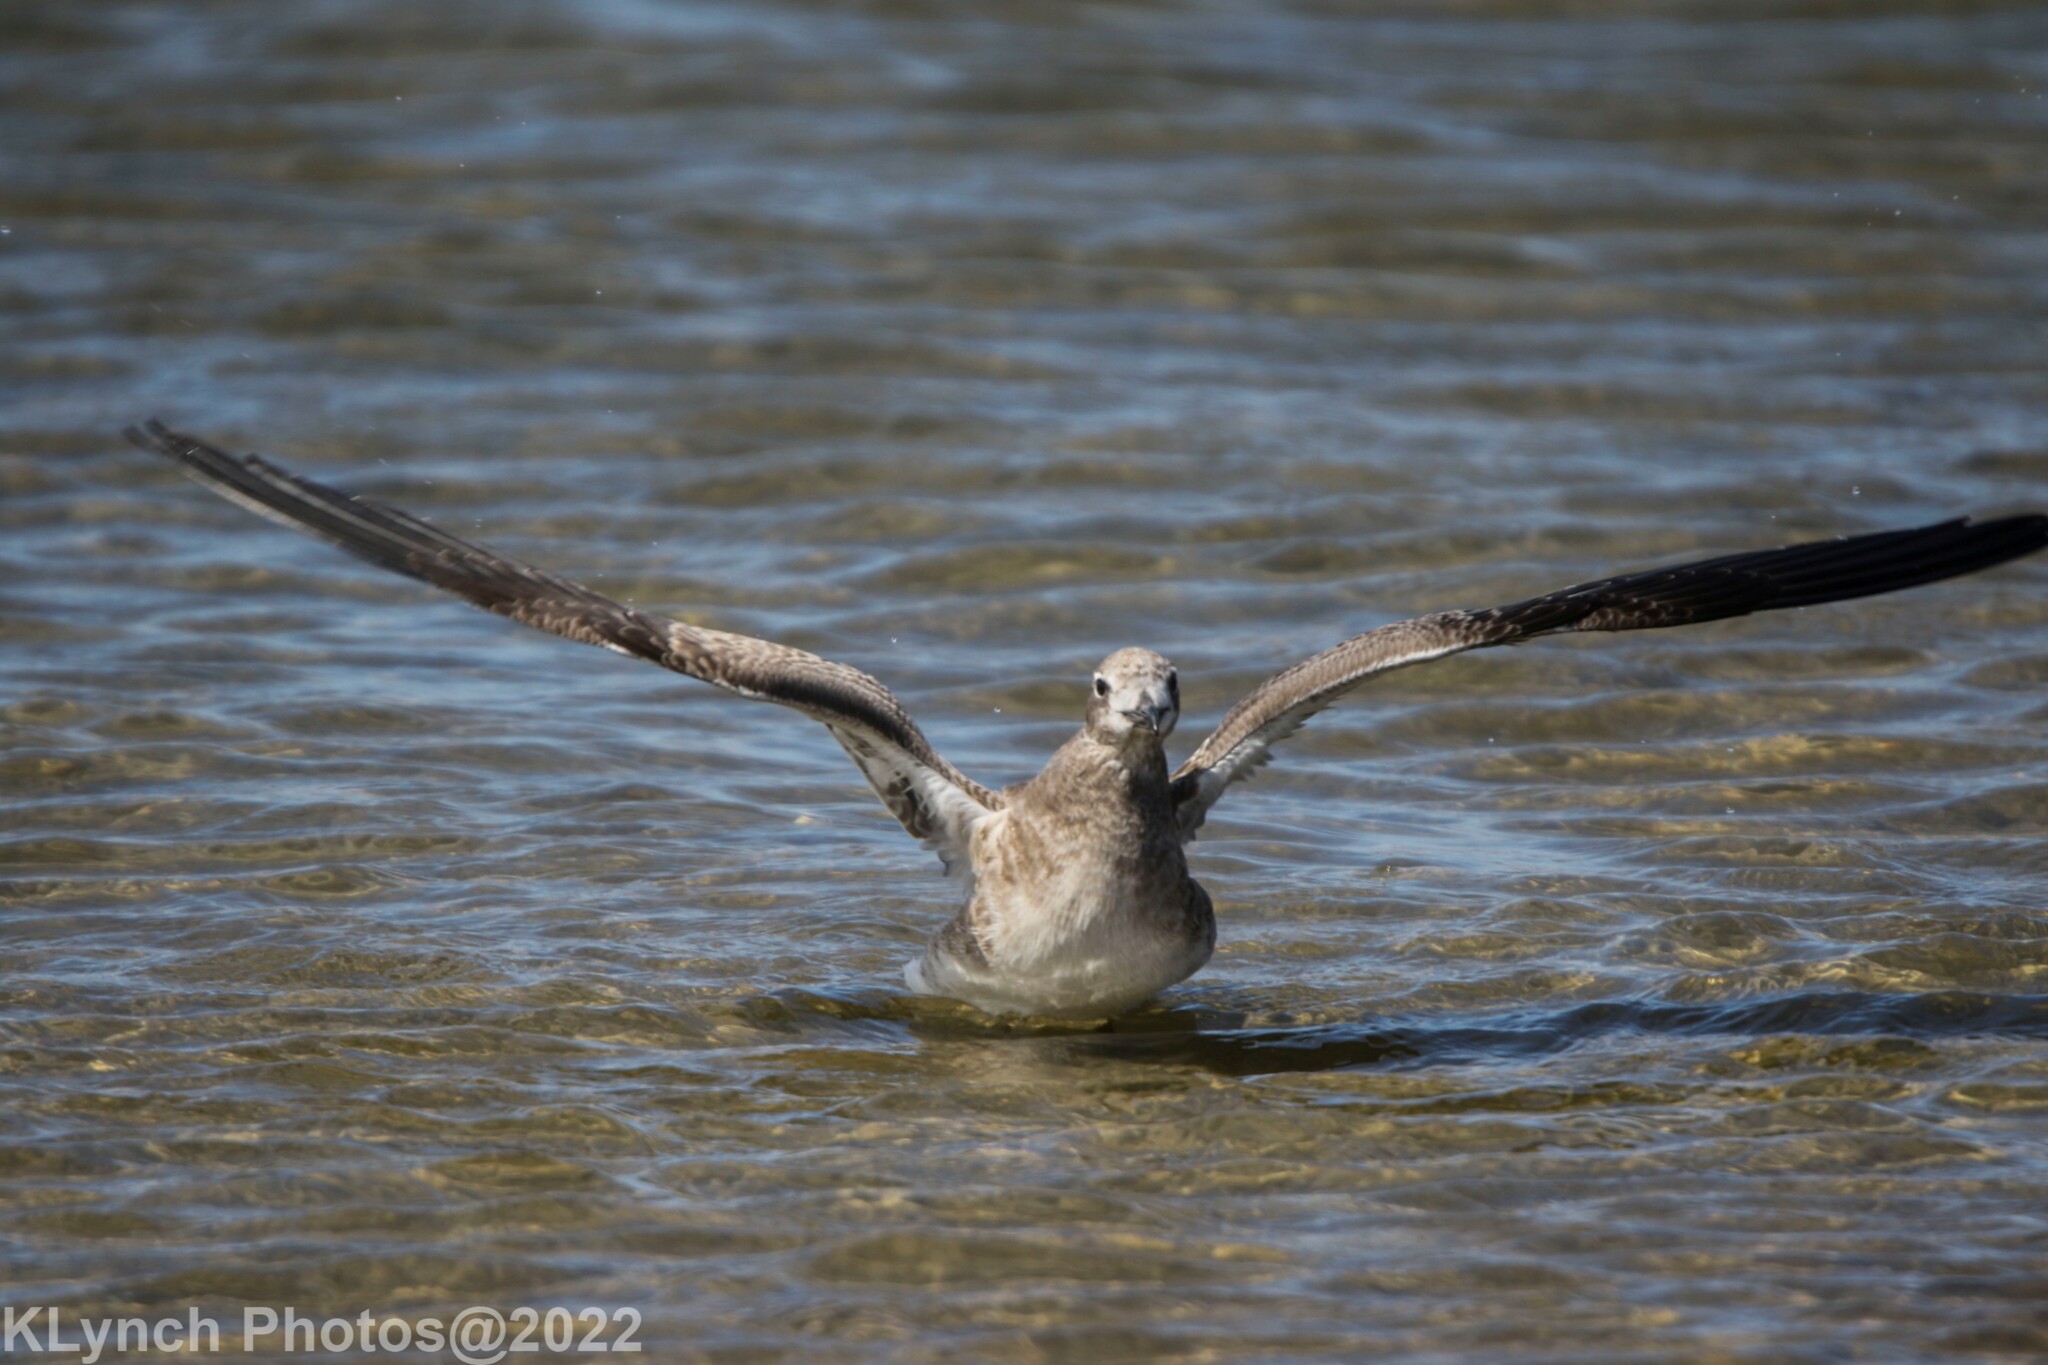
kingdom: Animalia
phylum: Chordata
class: Aves
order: Charadriiformes
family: Laridae
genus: Leucophaeus
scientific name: Leucophaeus atricilla
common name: Laughing gull
